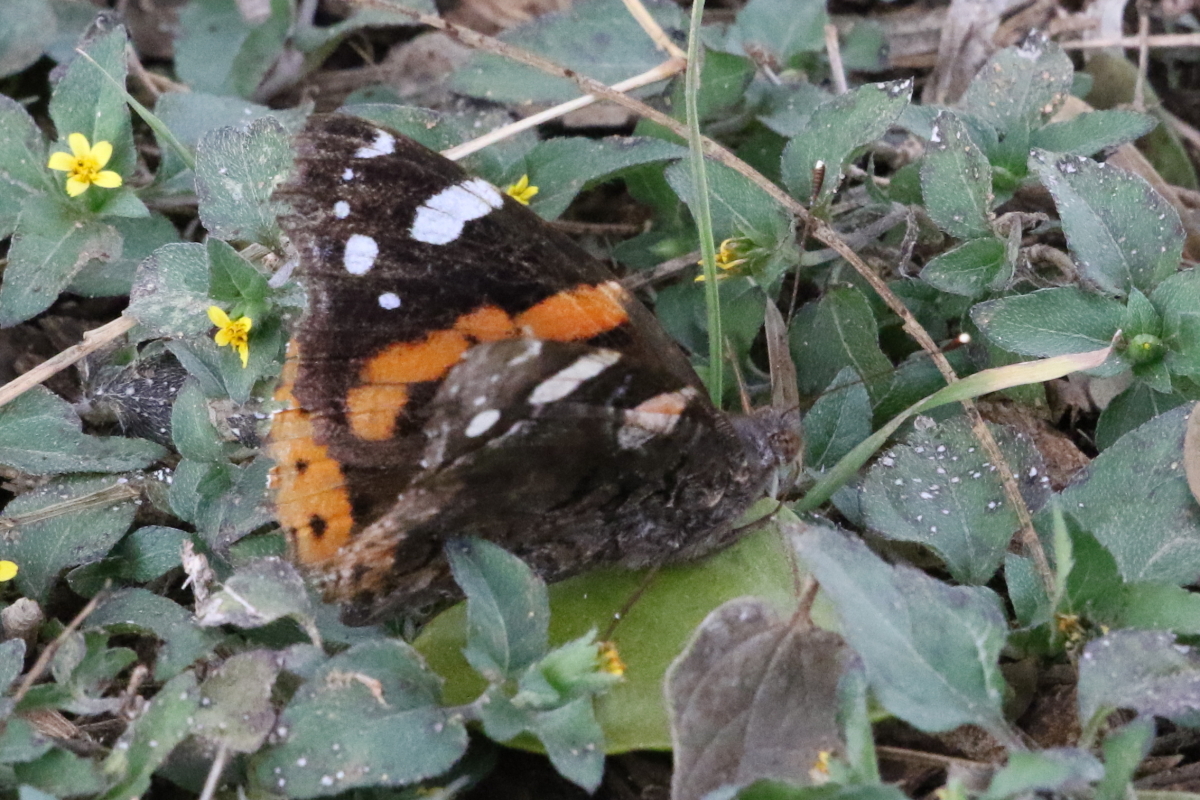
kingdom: Animalia
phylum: Arthropoda
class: Insecta
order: Lepidoptera
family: Nymphalidae
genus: Vanessa
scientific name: Vanessa atalanta
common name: Red admiral
